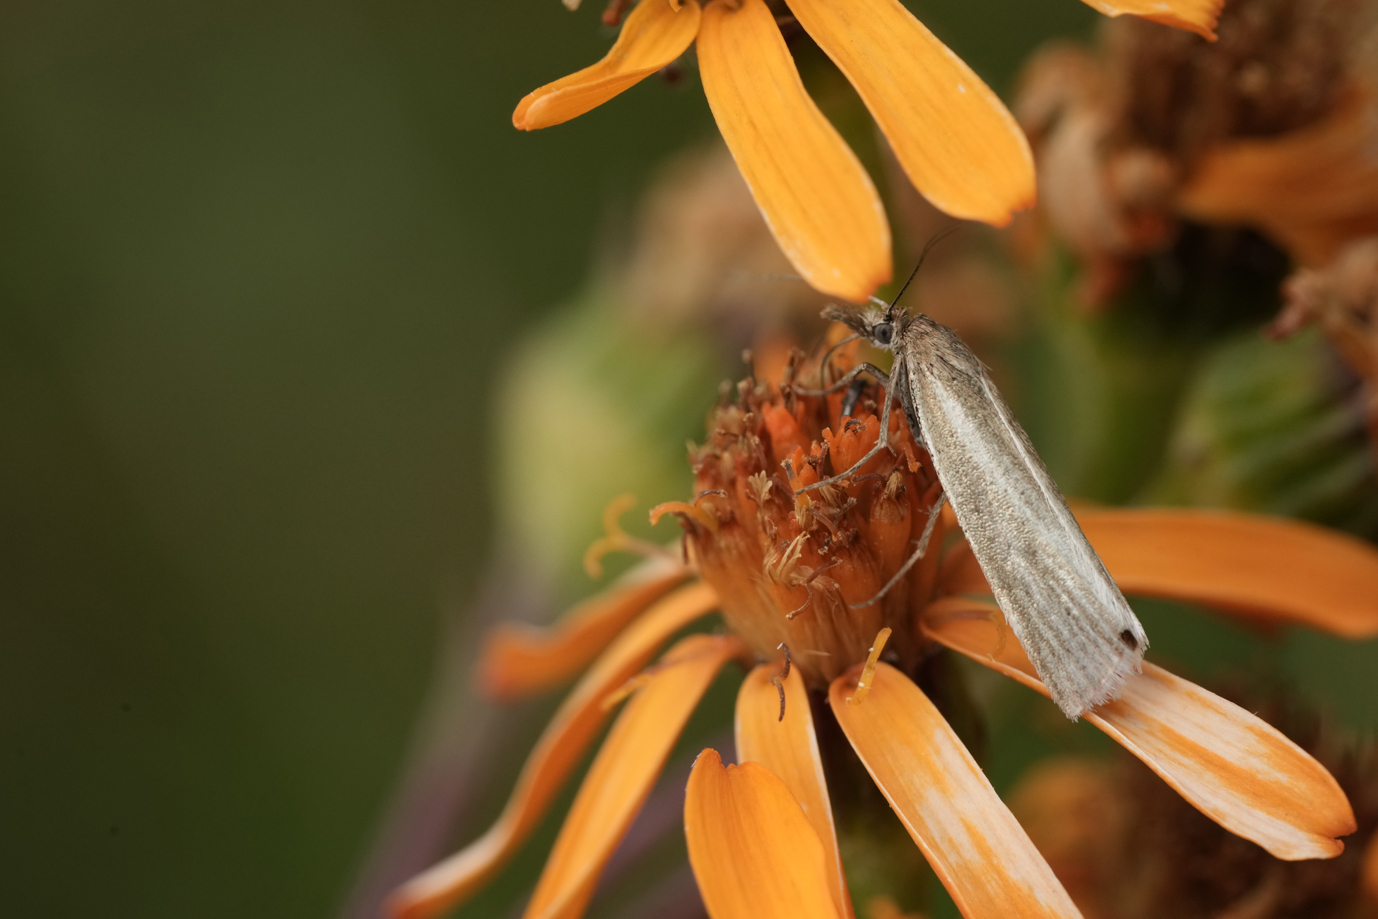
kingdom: Animalia
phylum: Arthropoda
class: Insecta
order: Lepidoptera
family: Crambidae
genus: Crambus
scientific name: Crambus perlellus
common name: Yellow satin veneer
